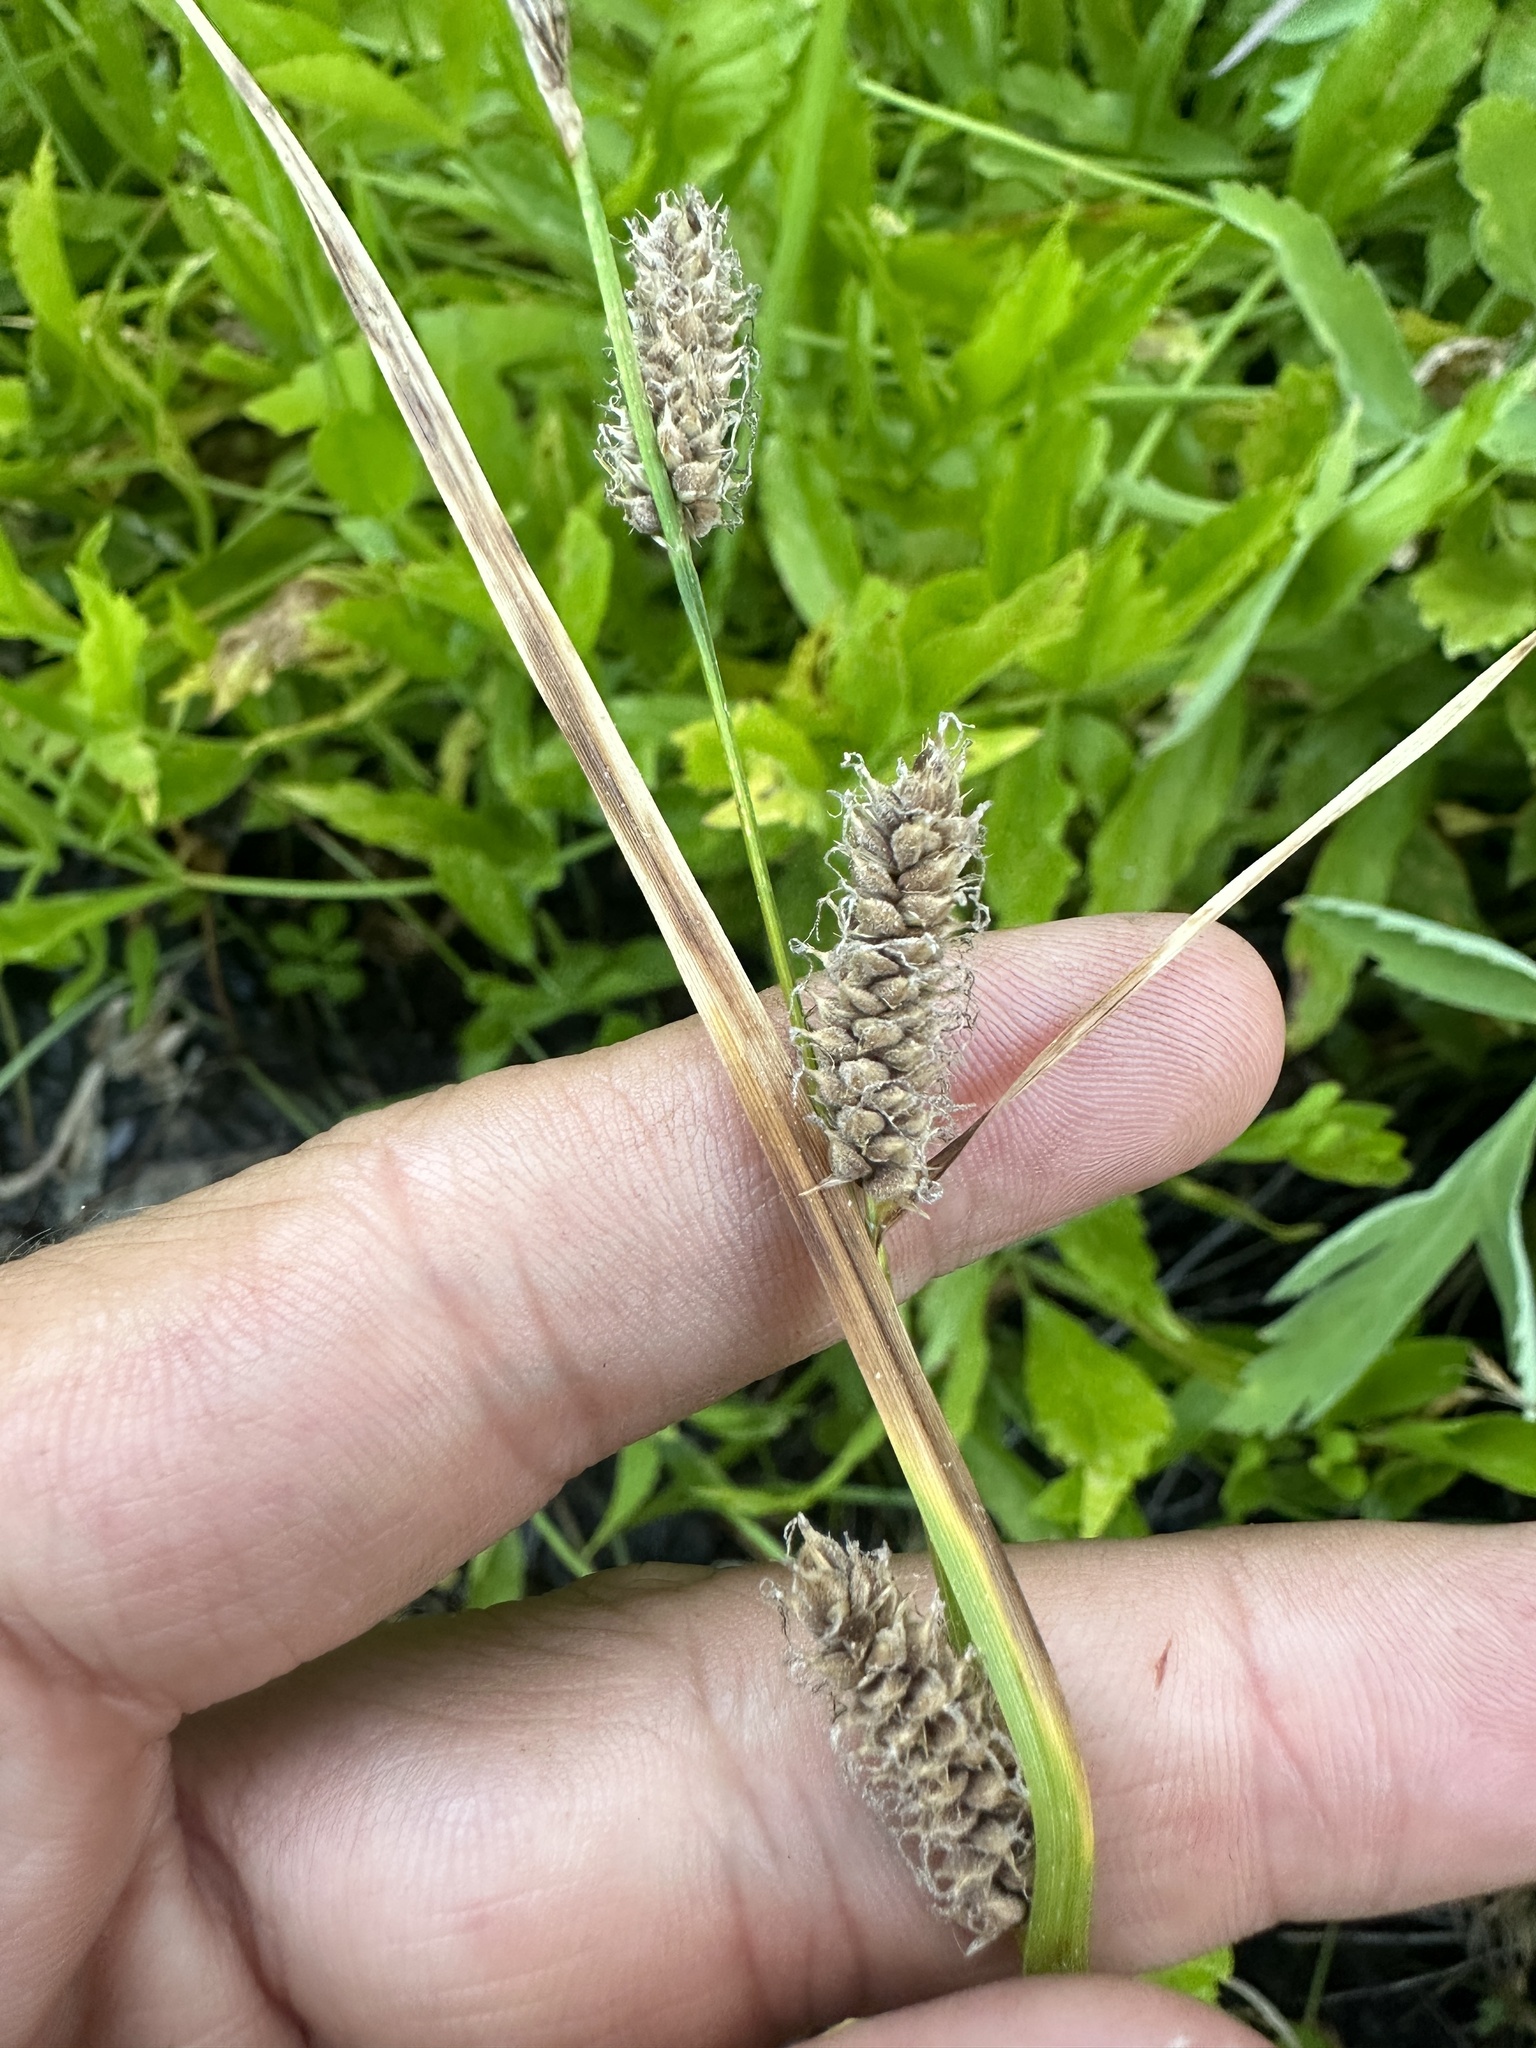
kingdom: Plantae
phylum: Tracheophyta
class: Liliopsida
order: Poales
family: Cyperaceae
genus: Carex
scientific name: Carex pellita
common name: Woolly sedge
